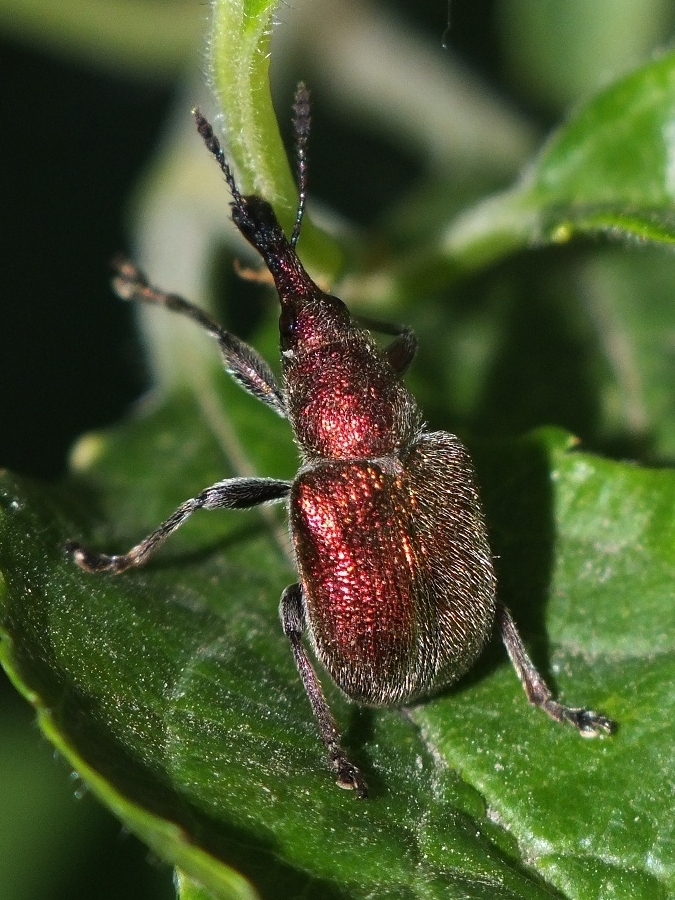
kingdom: Animalia
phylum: Arthropoda
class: Insecta
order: Coleoptera
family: Attelabidae
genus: Rhynchites
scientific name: Rhynchites auratus
